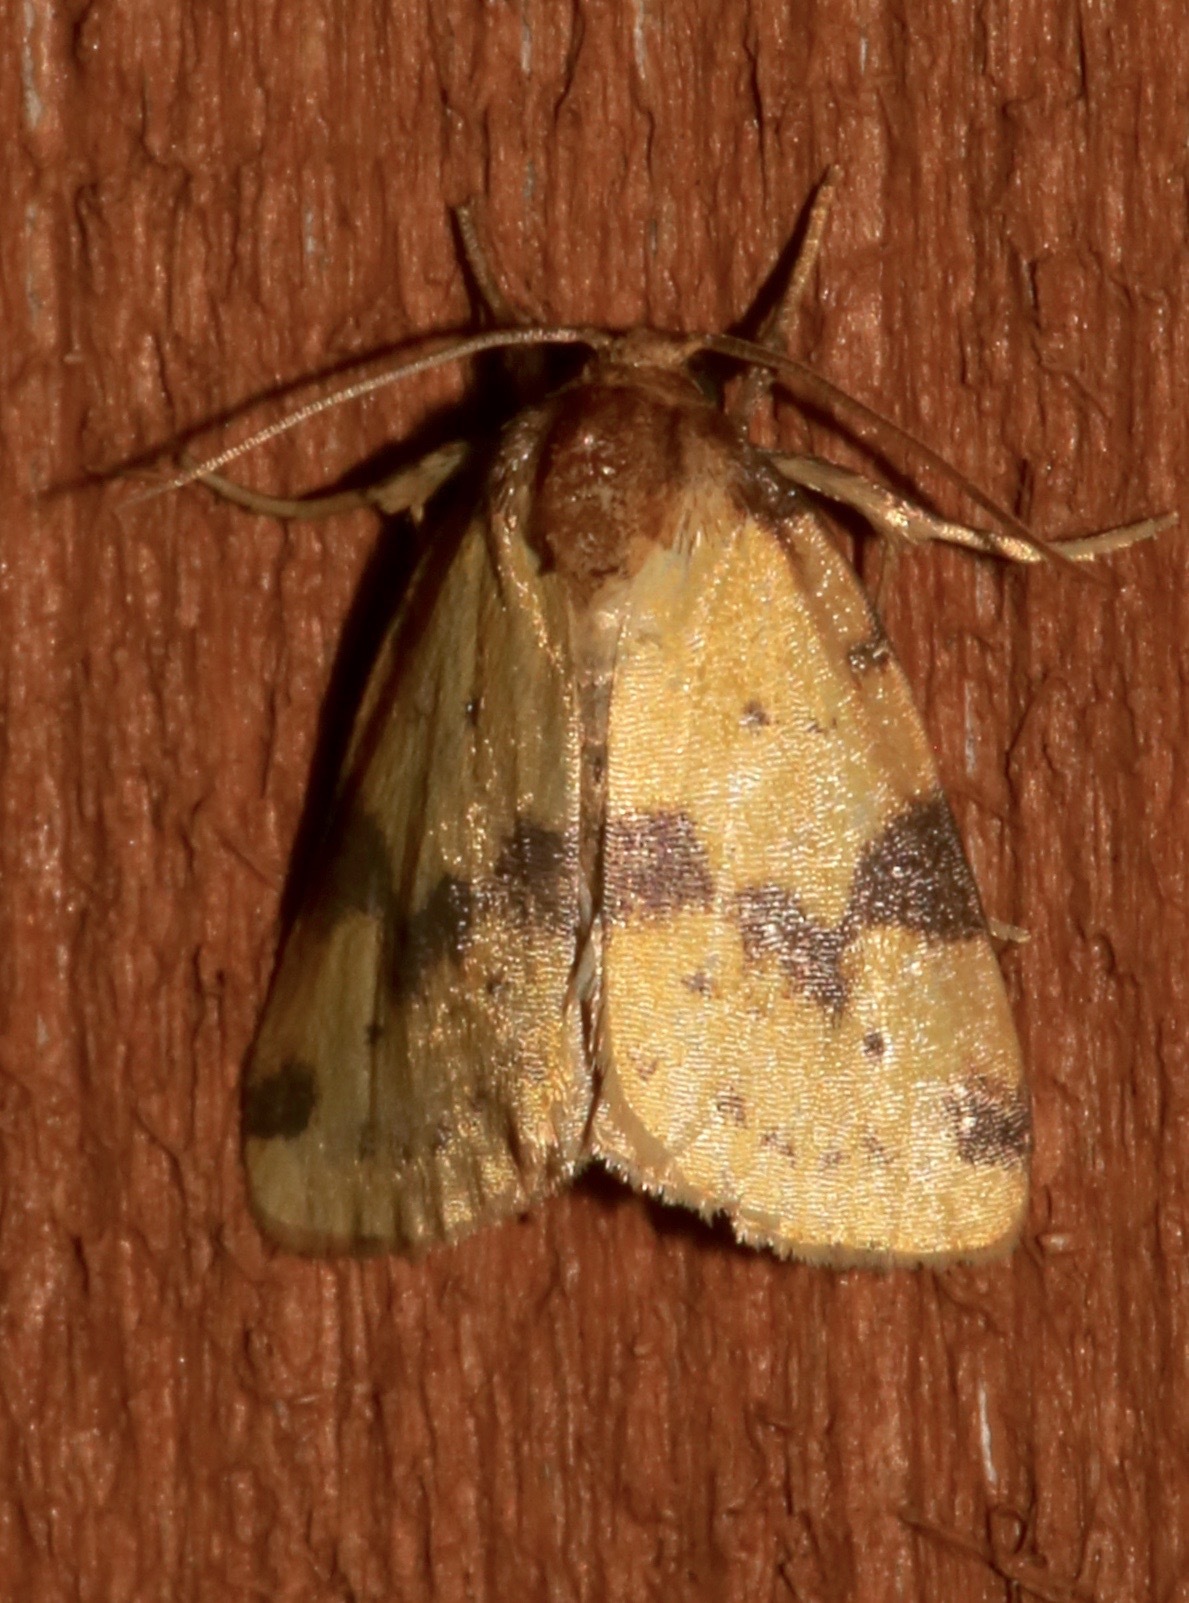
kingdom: Animalia
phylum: Arthropoda
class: Insecta
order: Lepidoptera
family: Noctuidae
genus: Azenia
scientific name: Azenia obtusa
